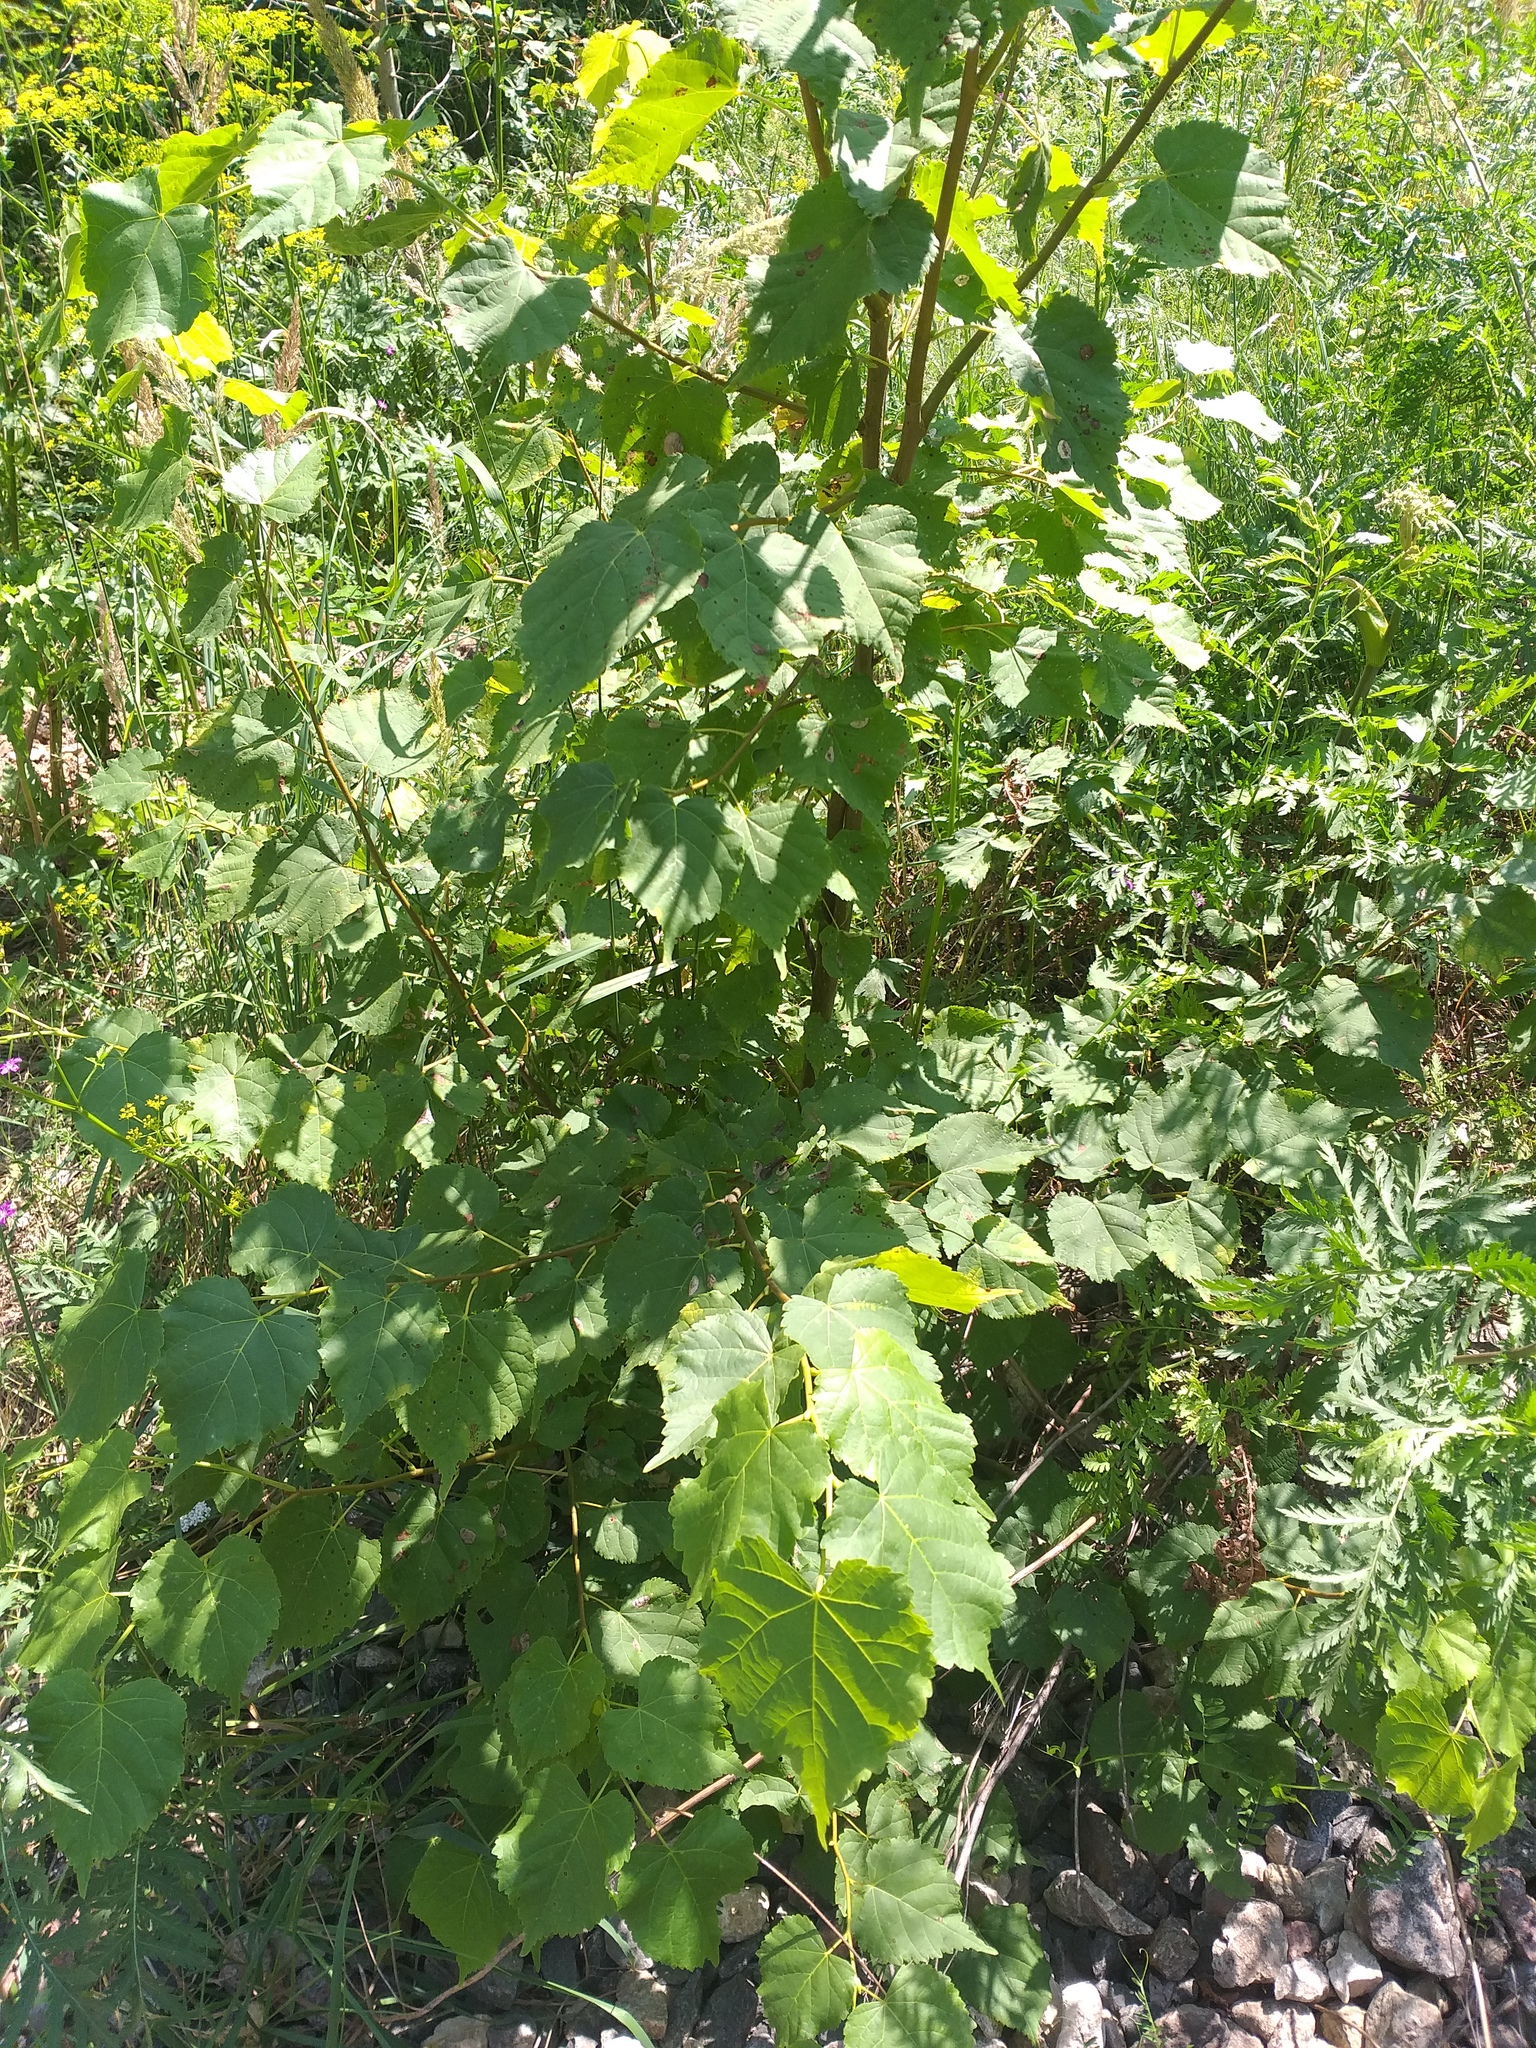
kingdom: Plantae
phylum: Tracheophyta
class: Magnoliopsida
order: Malvales
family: Malvaceae
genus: Tilia
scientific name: Tilia cordata
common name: Small-leaved lime
